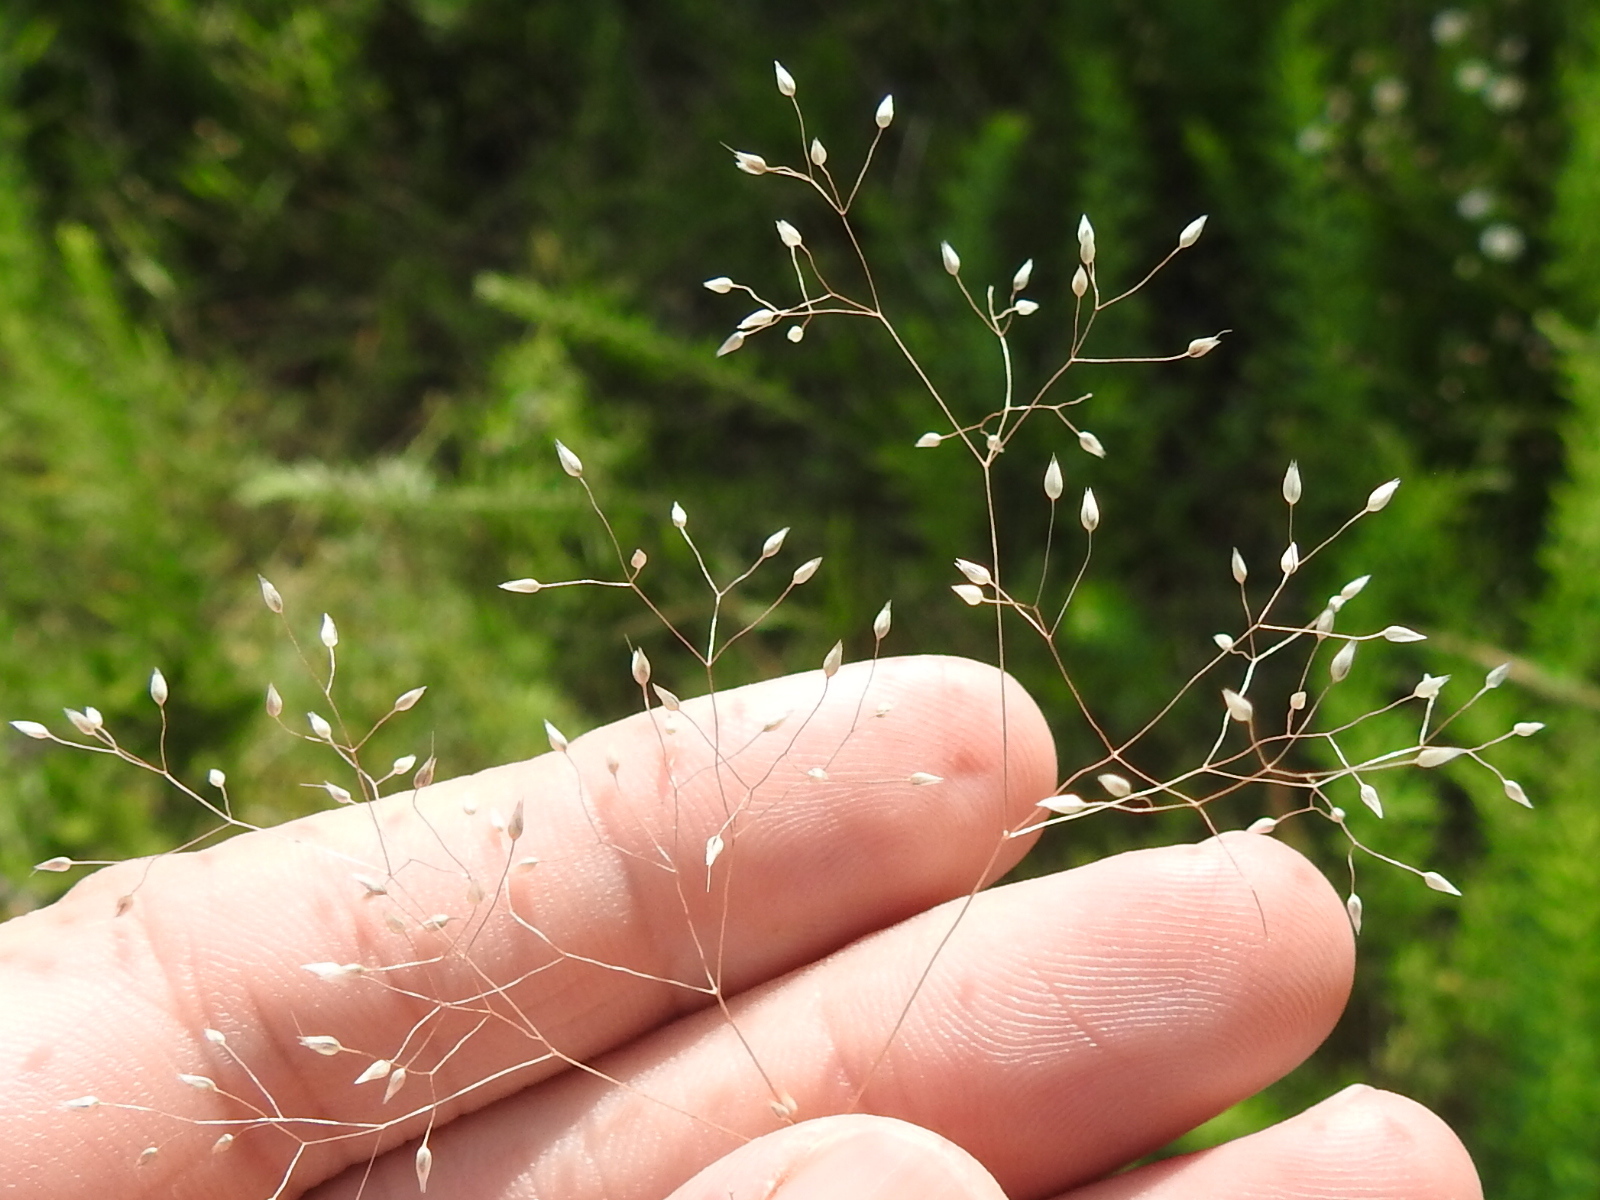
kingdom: Plantae
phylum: Tracheophyta
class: Liliopsida
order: Poales
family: Poaceae
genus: Aira
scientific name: Aira caryophyllea
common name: Silver hairgrass
